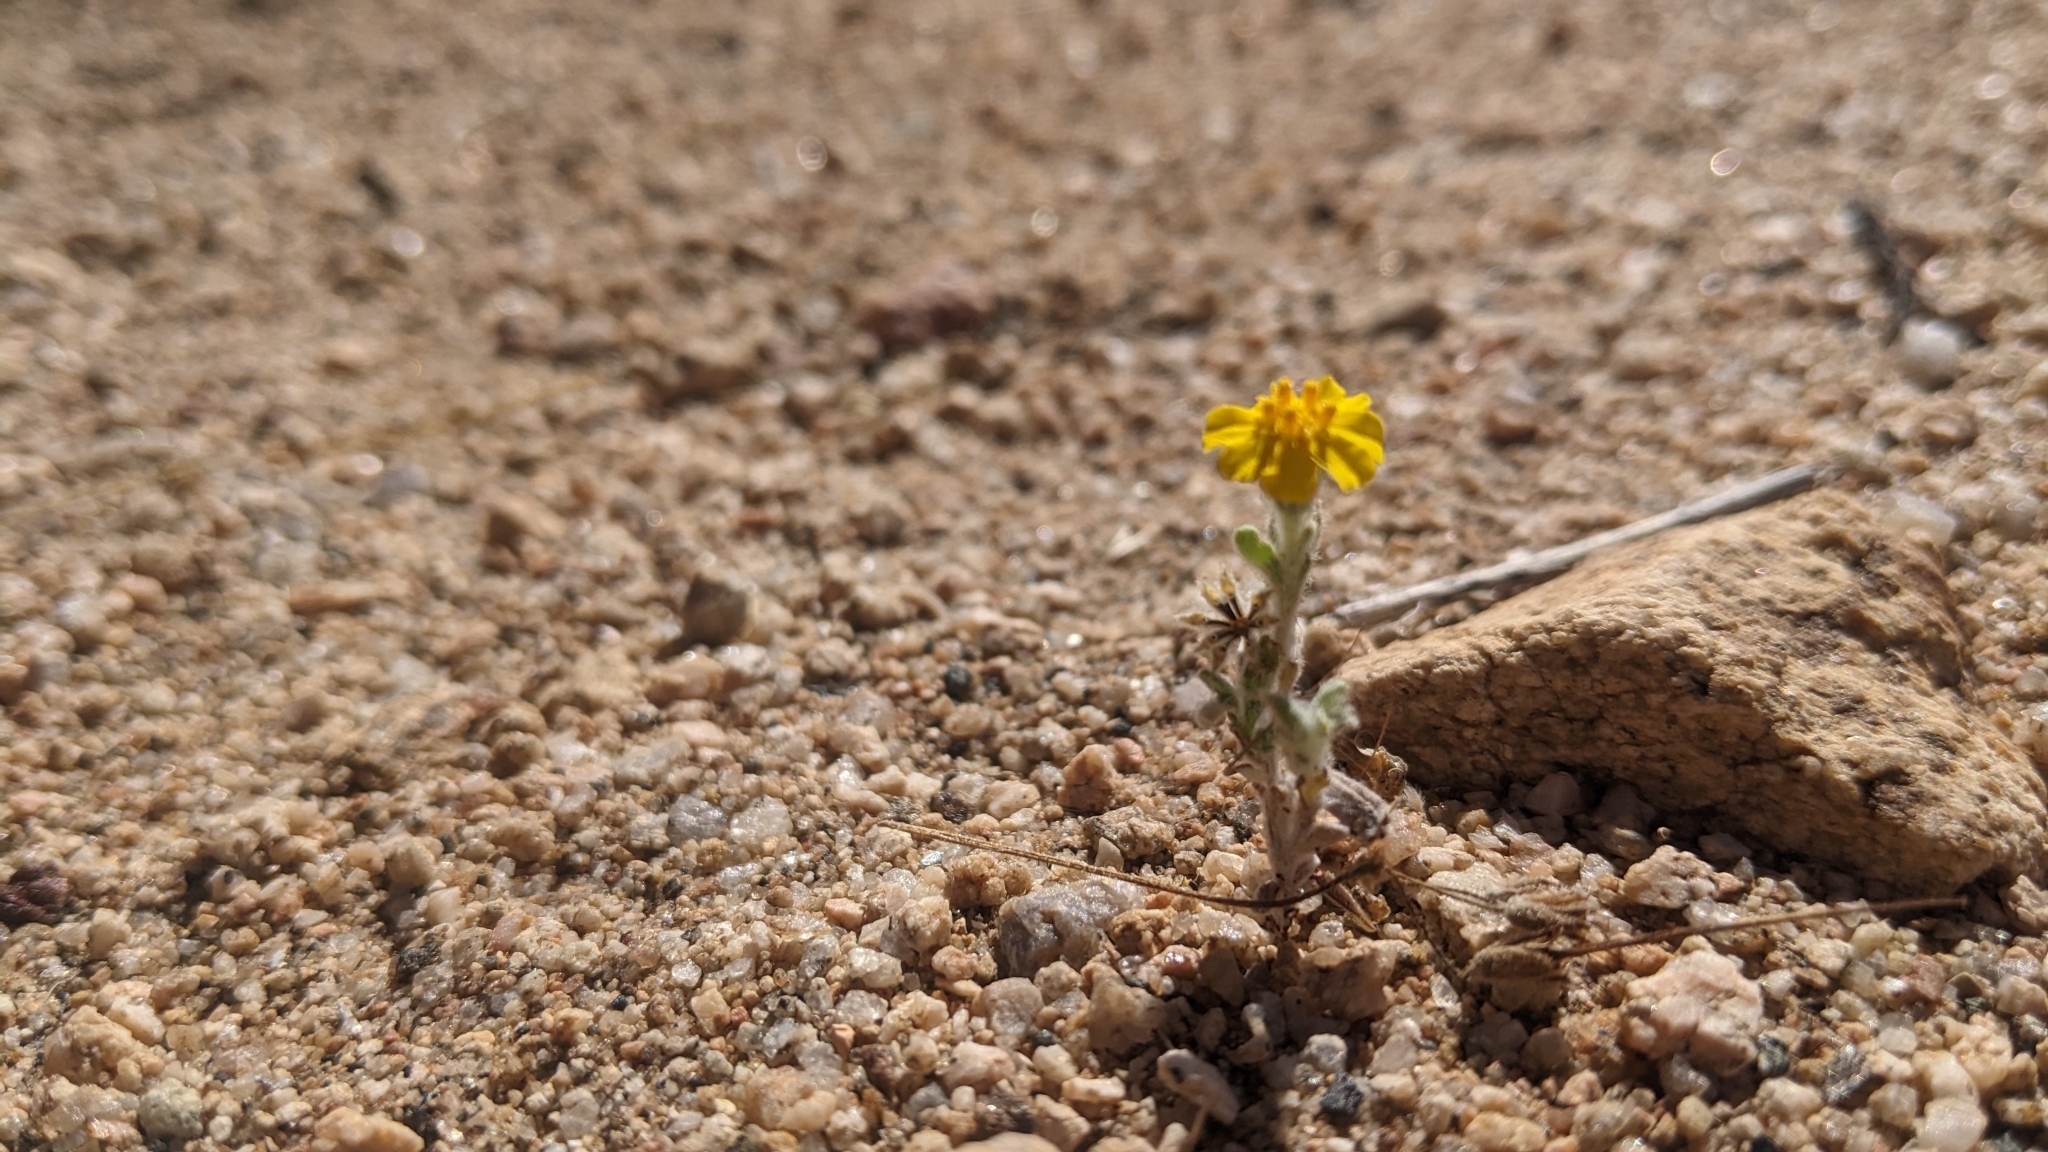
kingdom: Plantae
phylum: Tracheophyta
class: Magnoliopsida
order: Asterales
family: Asteraceae
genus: Eriophyllum
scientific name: Eriophyllum wallacei
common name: Wallace's woolly daisy
